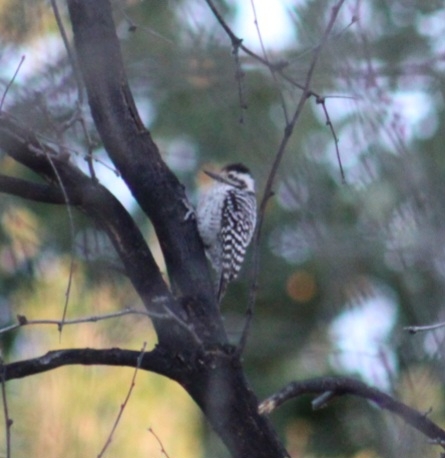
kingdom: Animalia
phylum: Chordata
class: Aves
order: Piciformes
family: Picidae
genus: Dryobates
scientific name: Dryobates scalaris
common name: Ladder-backed woodpecker
